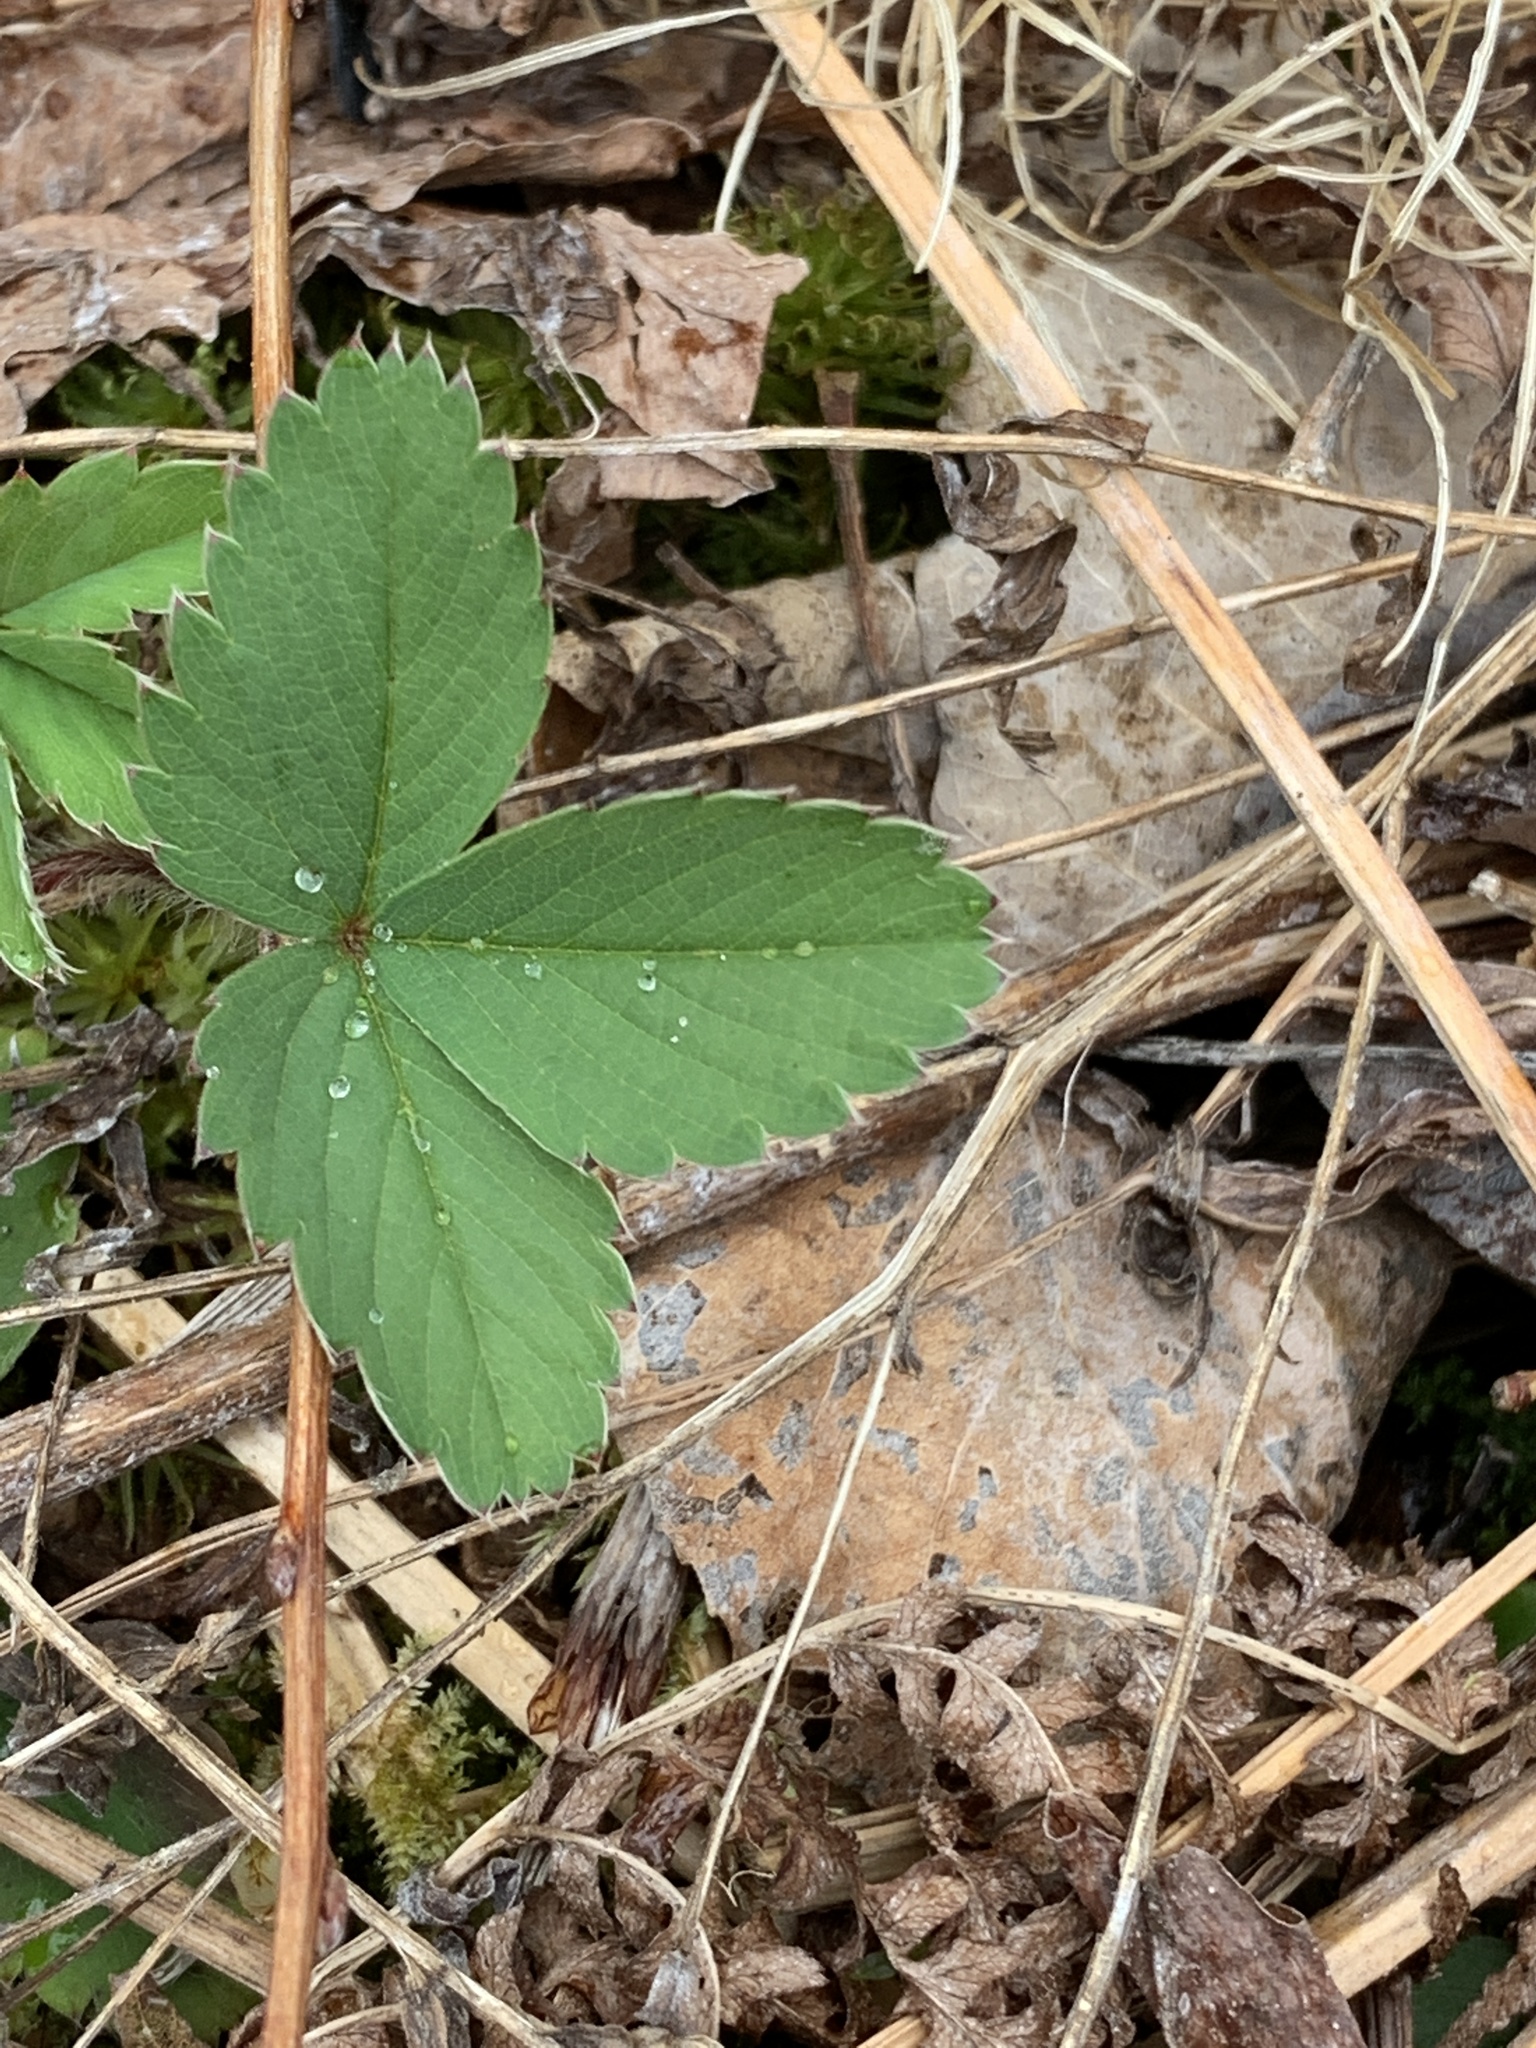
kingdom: Plantae
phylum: Tracheophyta
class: Magnoliopsida
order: Rosales
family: Rosaceae
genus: Fragaria
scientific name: Fragaria virginiana
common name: Thickleaved wild strawberry
